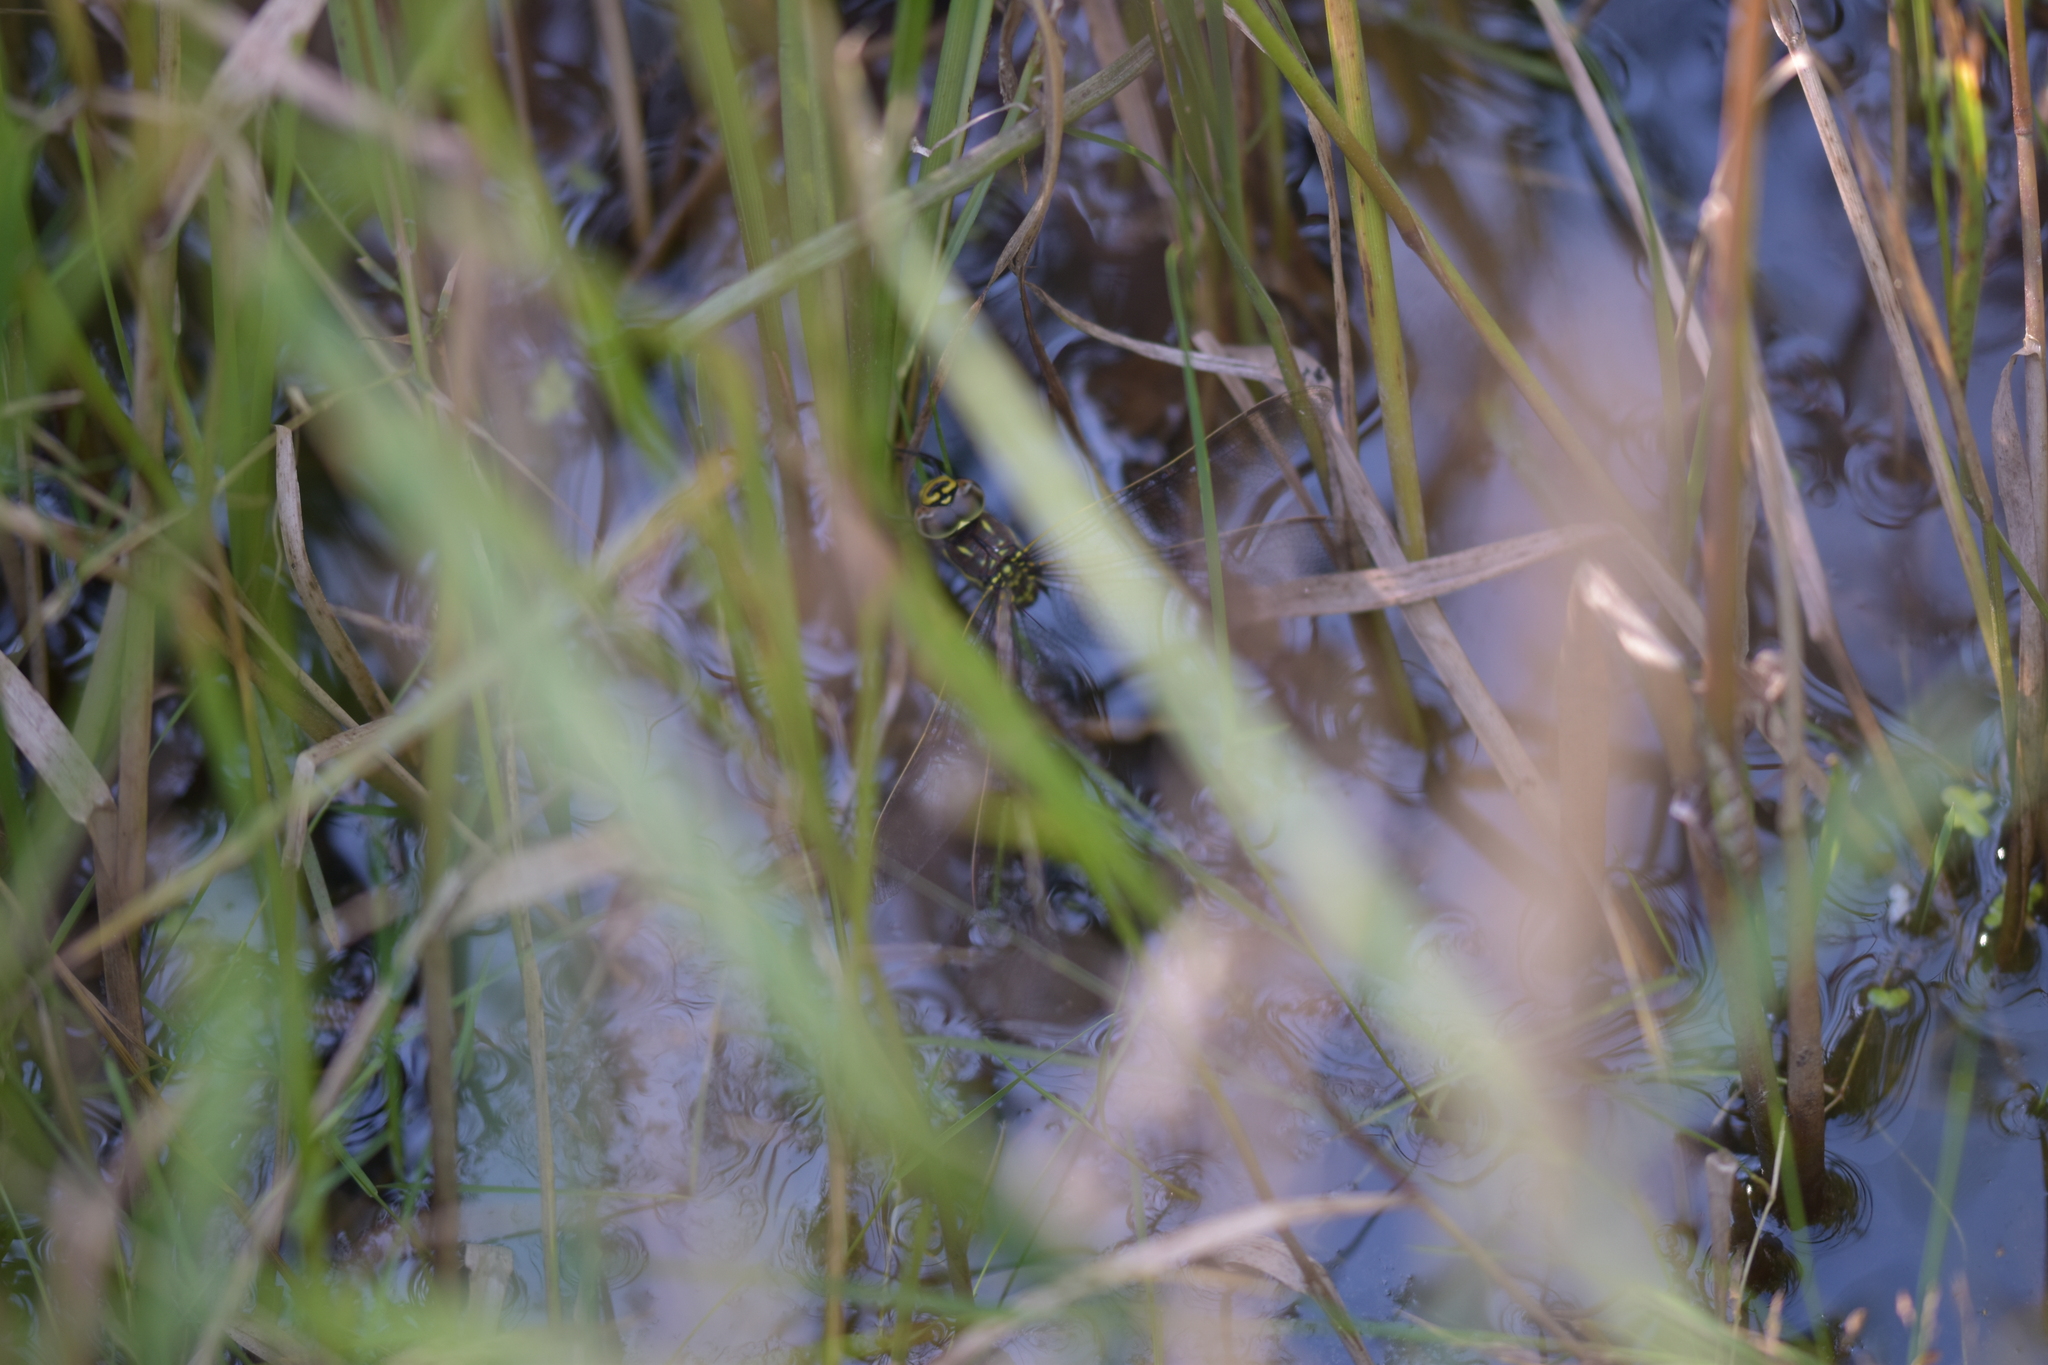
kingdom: Animalia
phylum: Arthropoda
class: Insecta
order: Odonata
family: Aeshnidae
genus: Aeshna
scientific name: Aeshna juncea
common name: Moorland hawker
